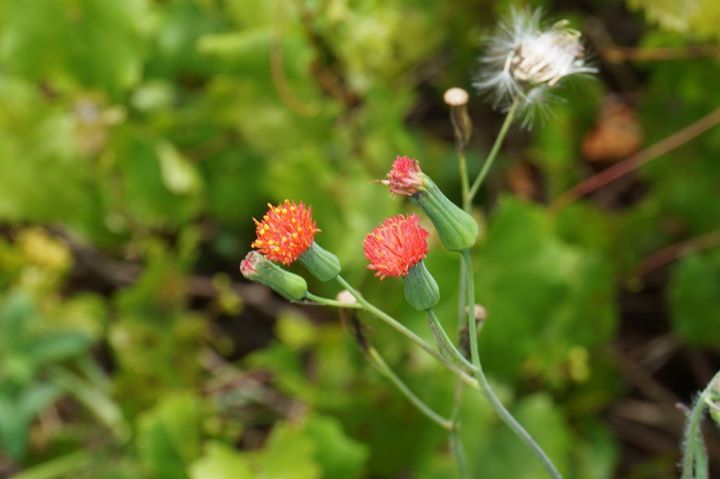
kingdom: Plantae
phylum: Tracheophyta
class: Magnoliopsida
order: Asterales
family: Asteraceae
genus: Emilia
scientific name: Emilia fosbergii
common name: Florida tasselflower
